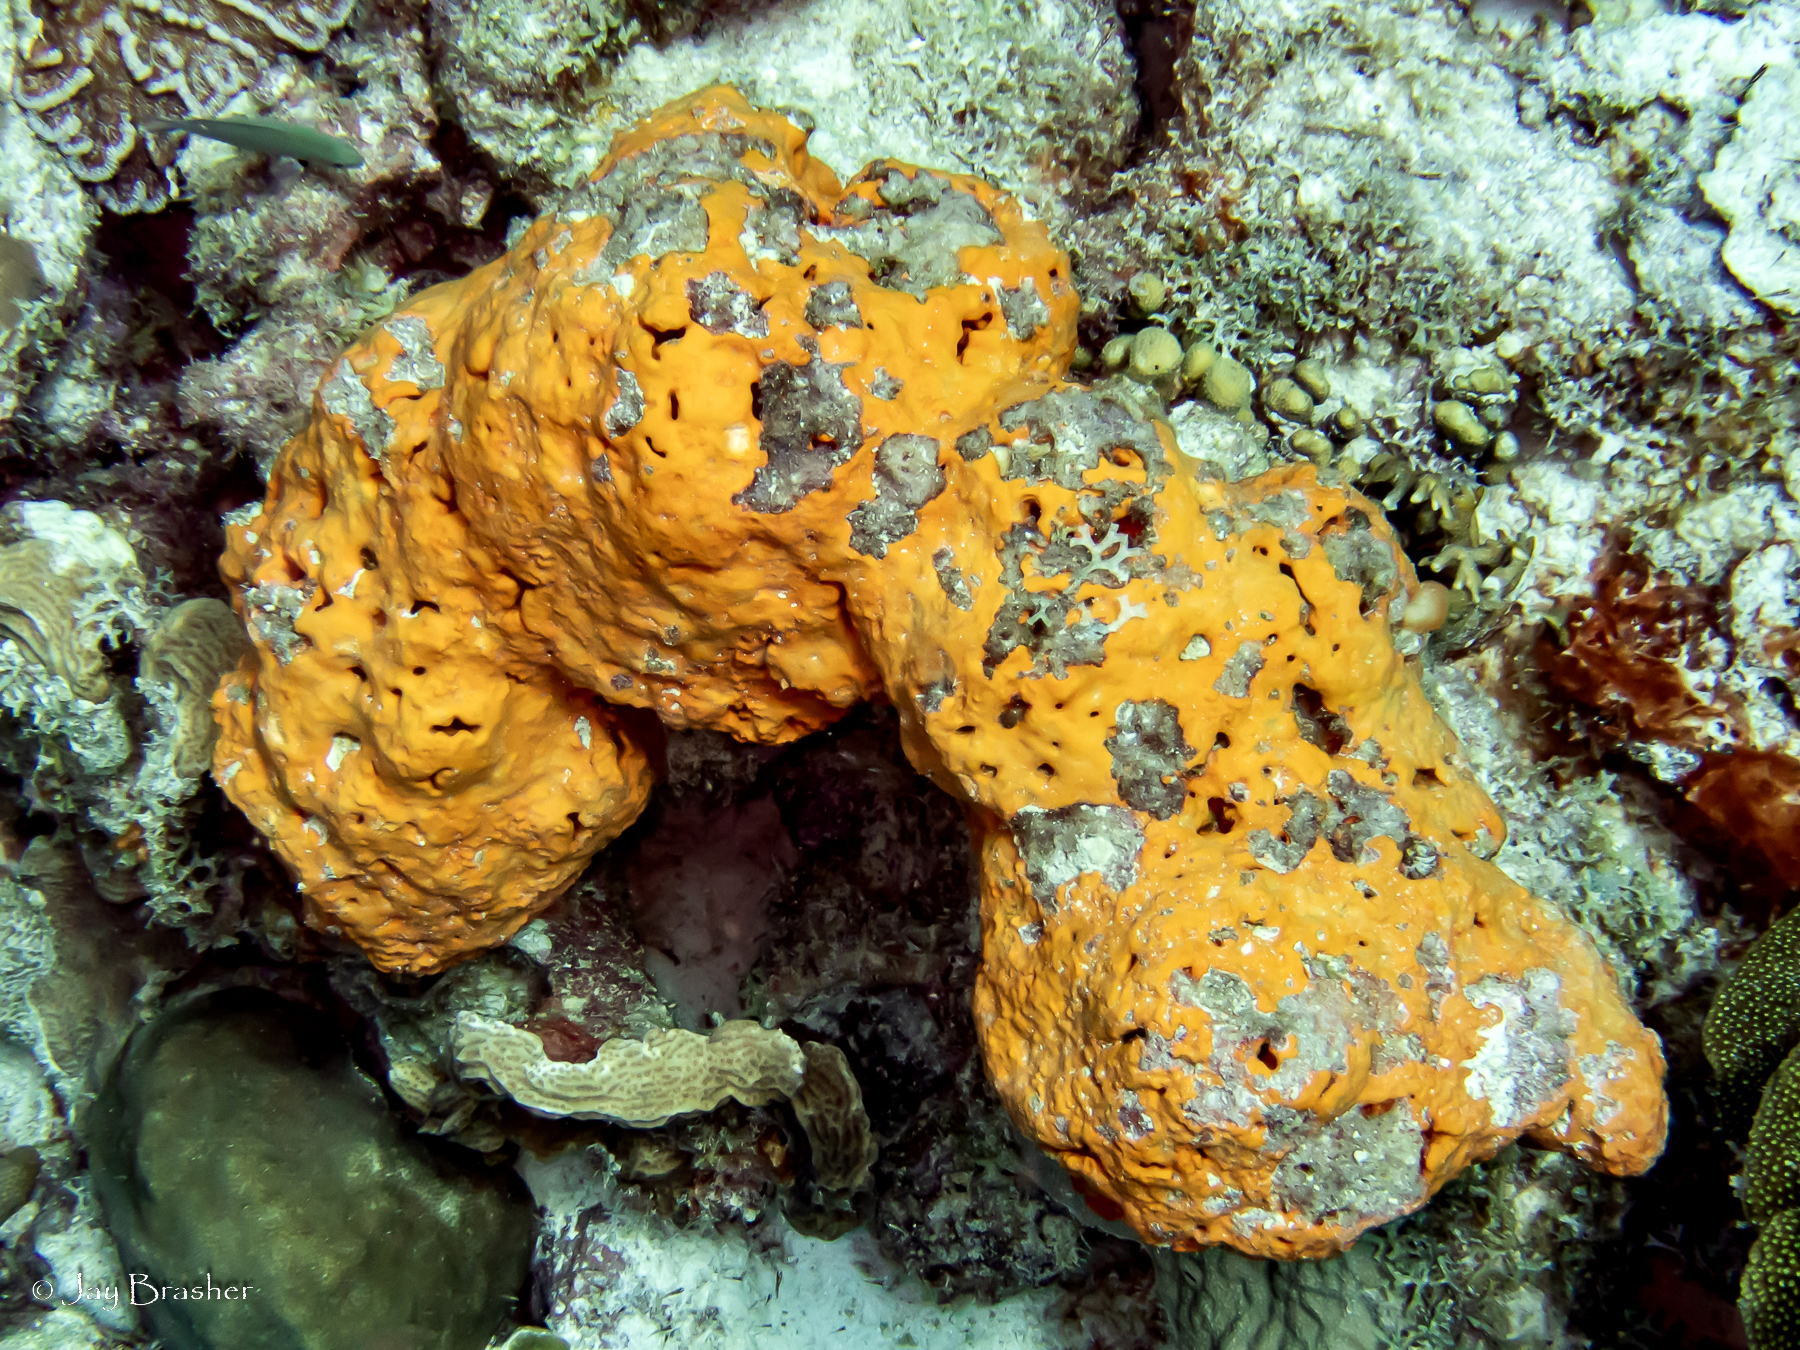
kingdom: Animalia
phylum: Cnidaria
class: Anthozoa
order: Scleractinia
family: Pocilloporidae
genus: Madracis
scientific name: Madracis decactis
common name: Ten-ray star coral
